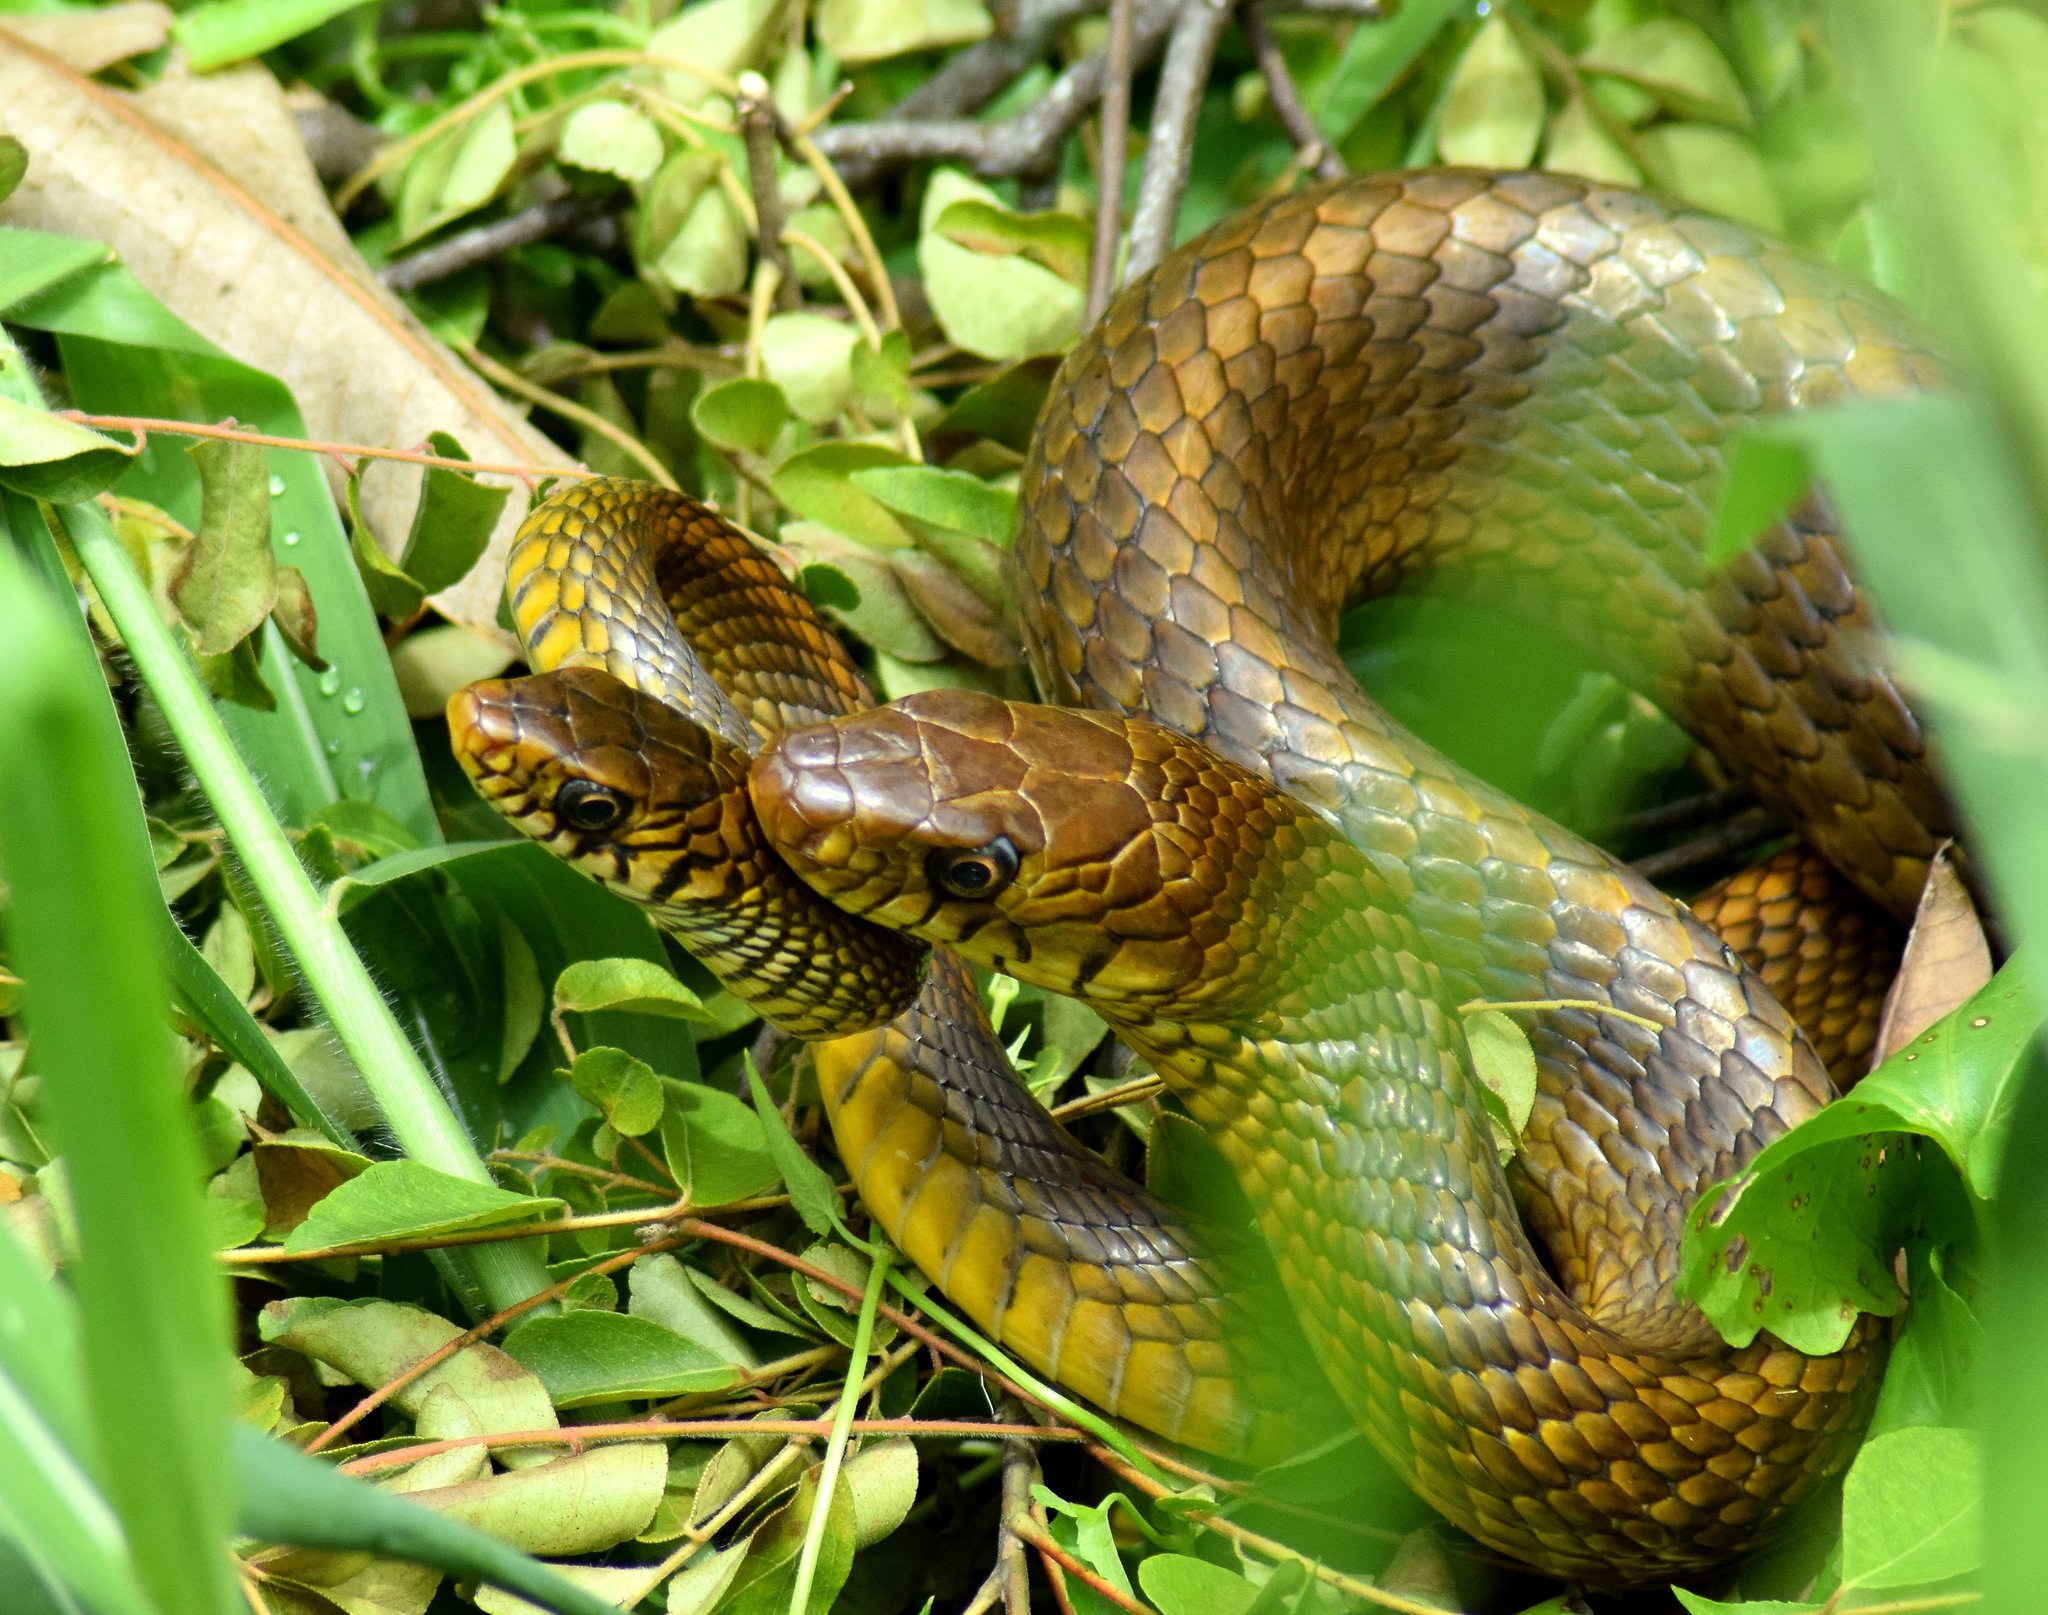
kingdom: Animalia
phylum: Chordata
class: Squamata
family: Colubridae
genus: Ptyas
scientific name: Ptyas mucosa
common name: Oriental ratsnake
